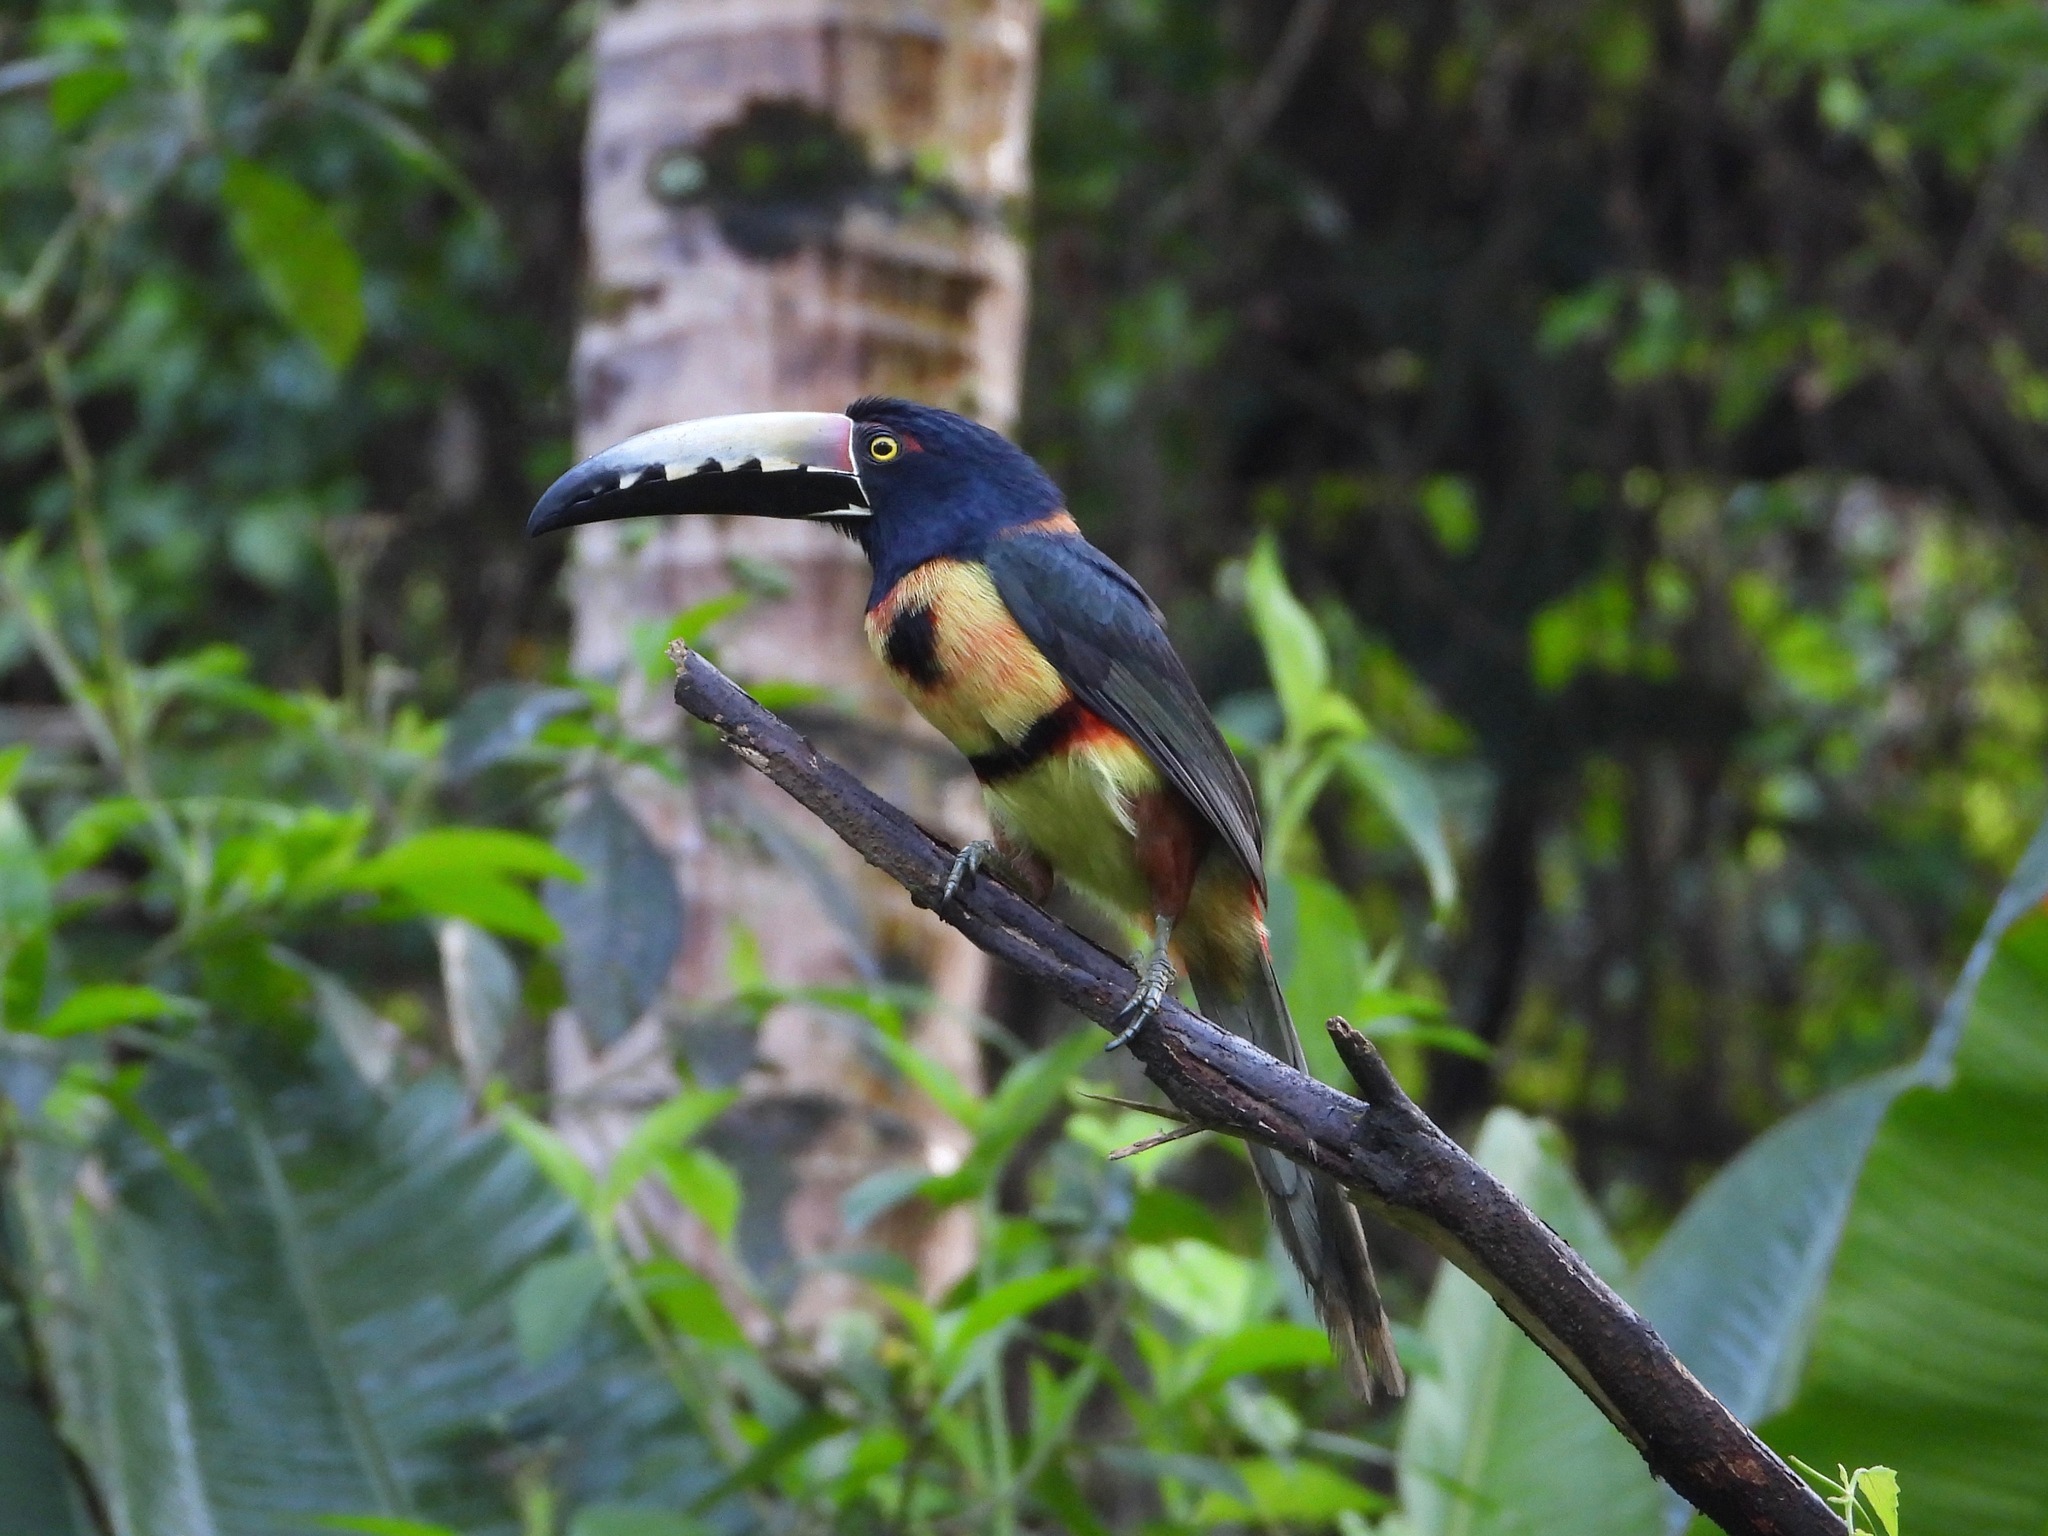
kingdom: Animalia
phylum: Chordata
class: Aves
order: Piciformes
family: Ramphastidae
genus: Pteroglossus
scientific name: Pteroglossus torquatus
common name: Collared aracari
